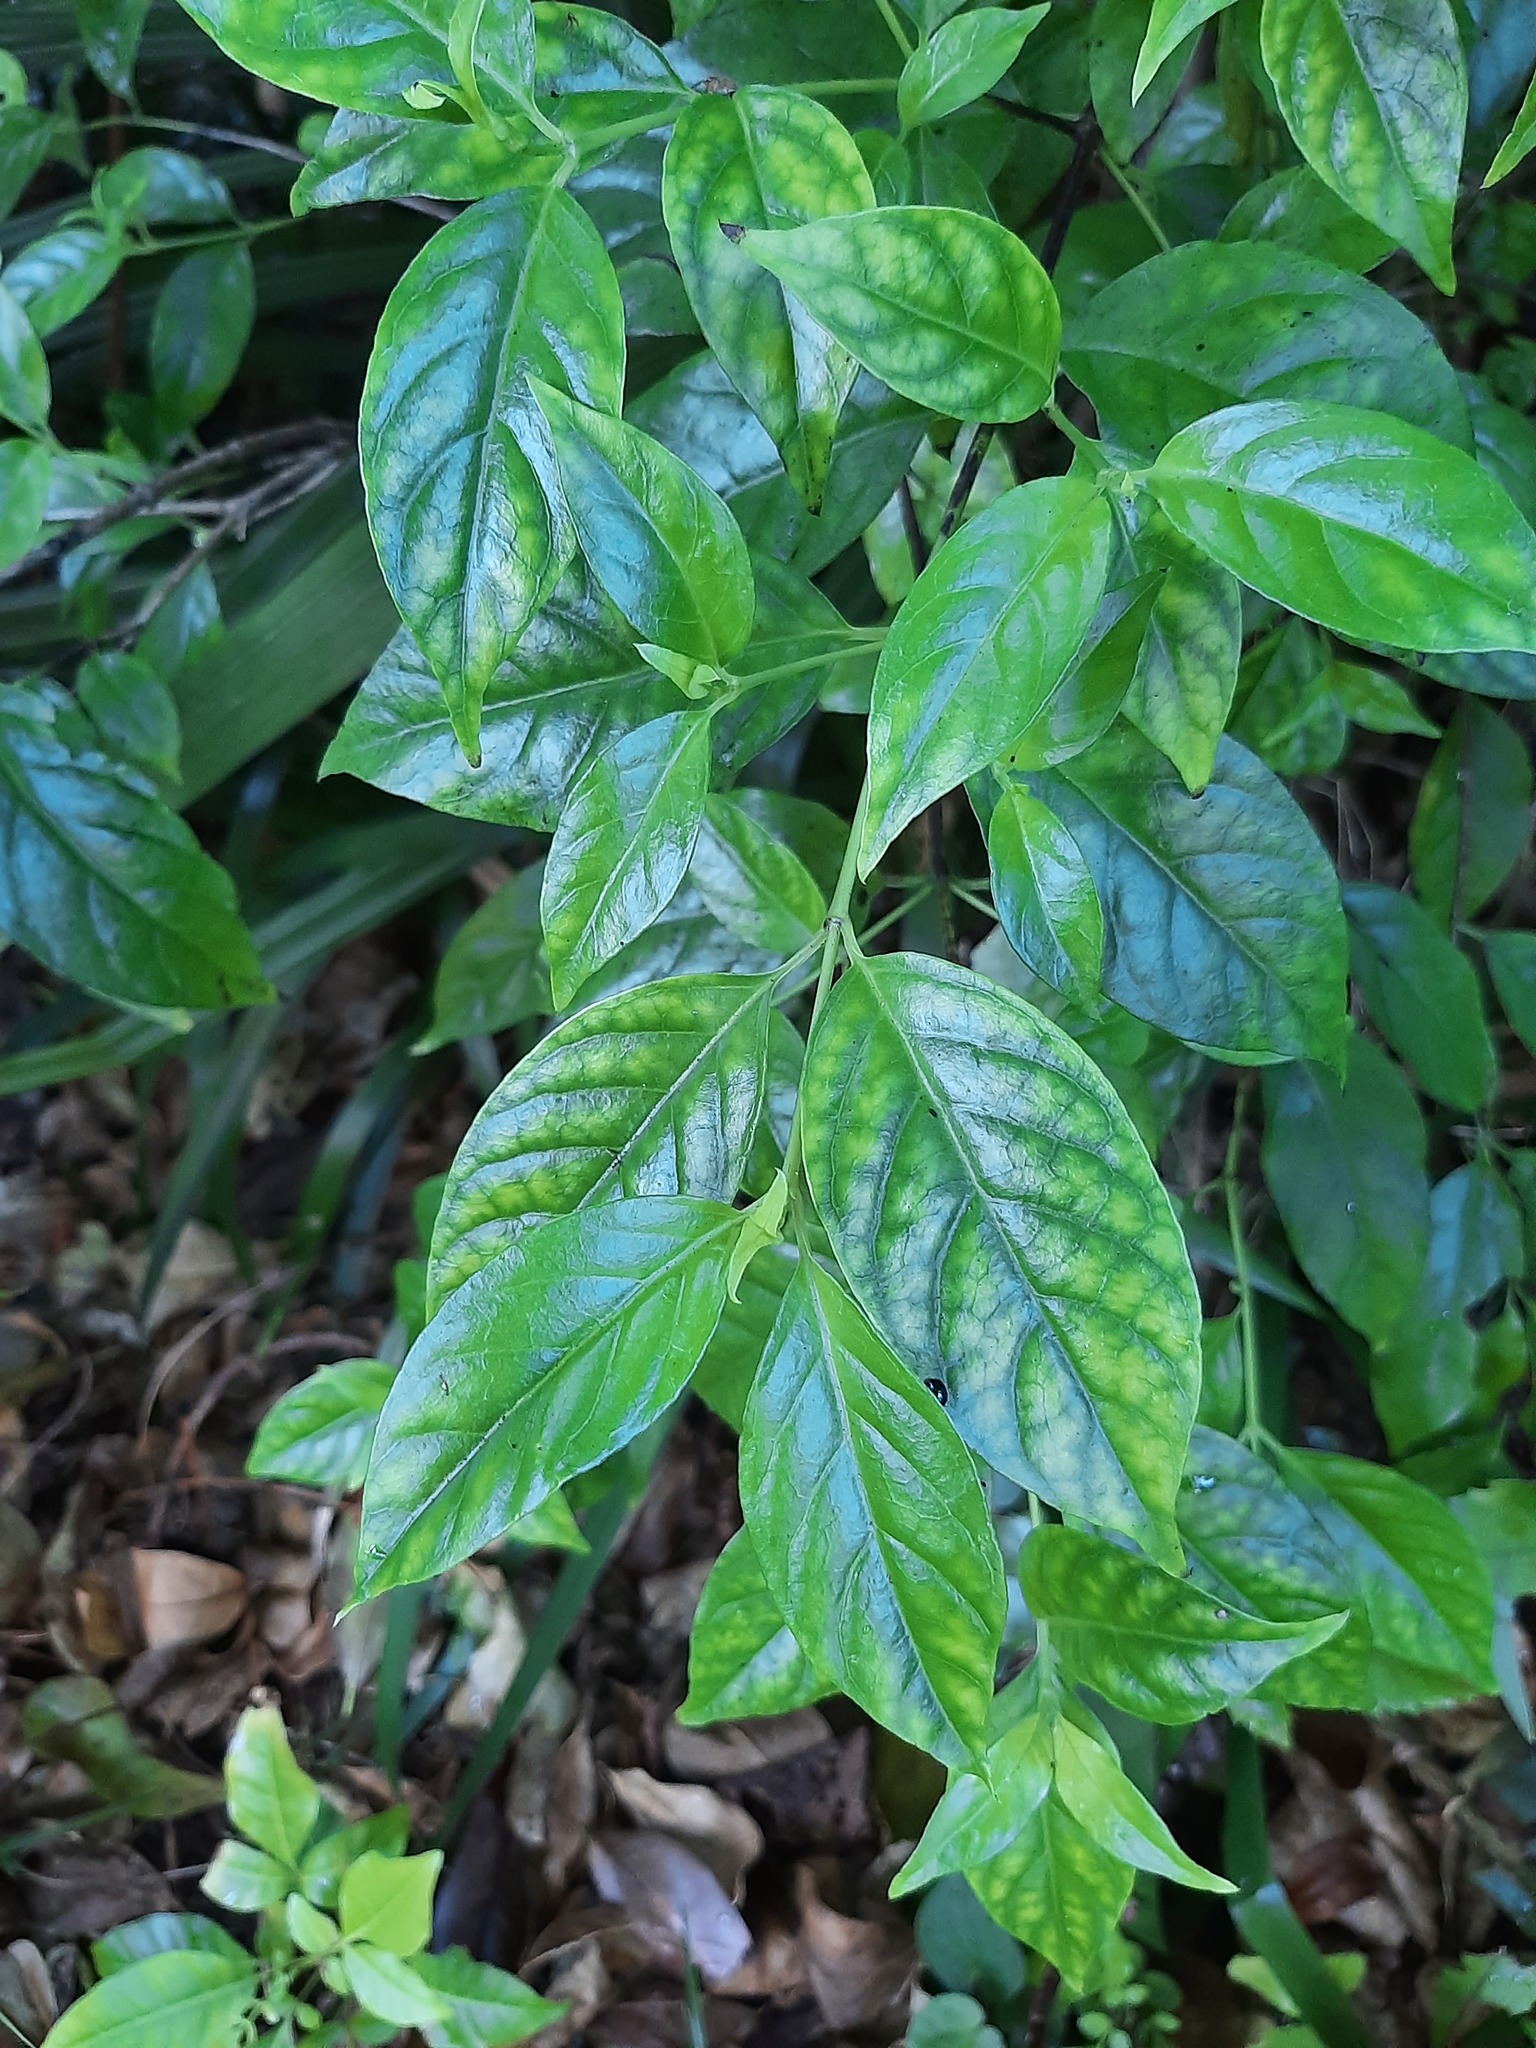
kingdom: Plantae
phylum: Tracheophyta
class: Magnoliopsida
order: Gentianales
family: Loganiaceae
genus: Geniostoma
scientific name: Geniostoma ligustrifolium
